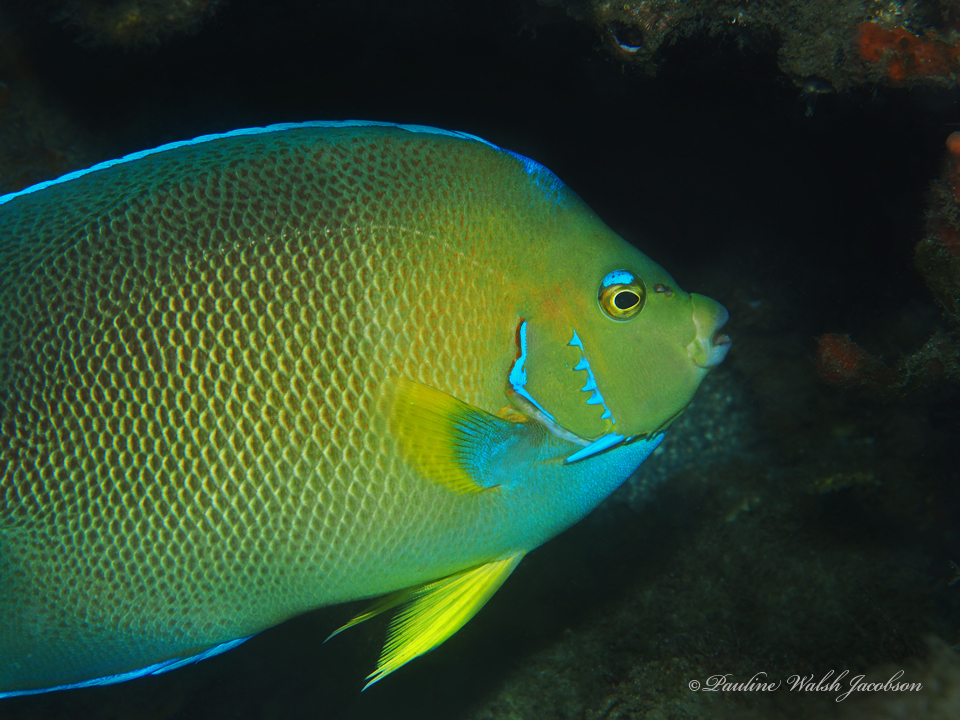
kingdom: Animalia
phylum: Chordata
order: Perciformes
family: Pomacanthidae
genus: Holacanthus
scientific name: Holacanthus bermudensis
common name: Blue angelfish
